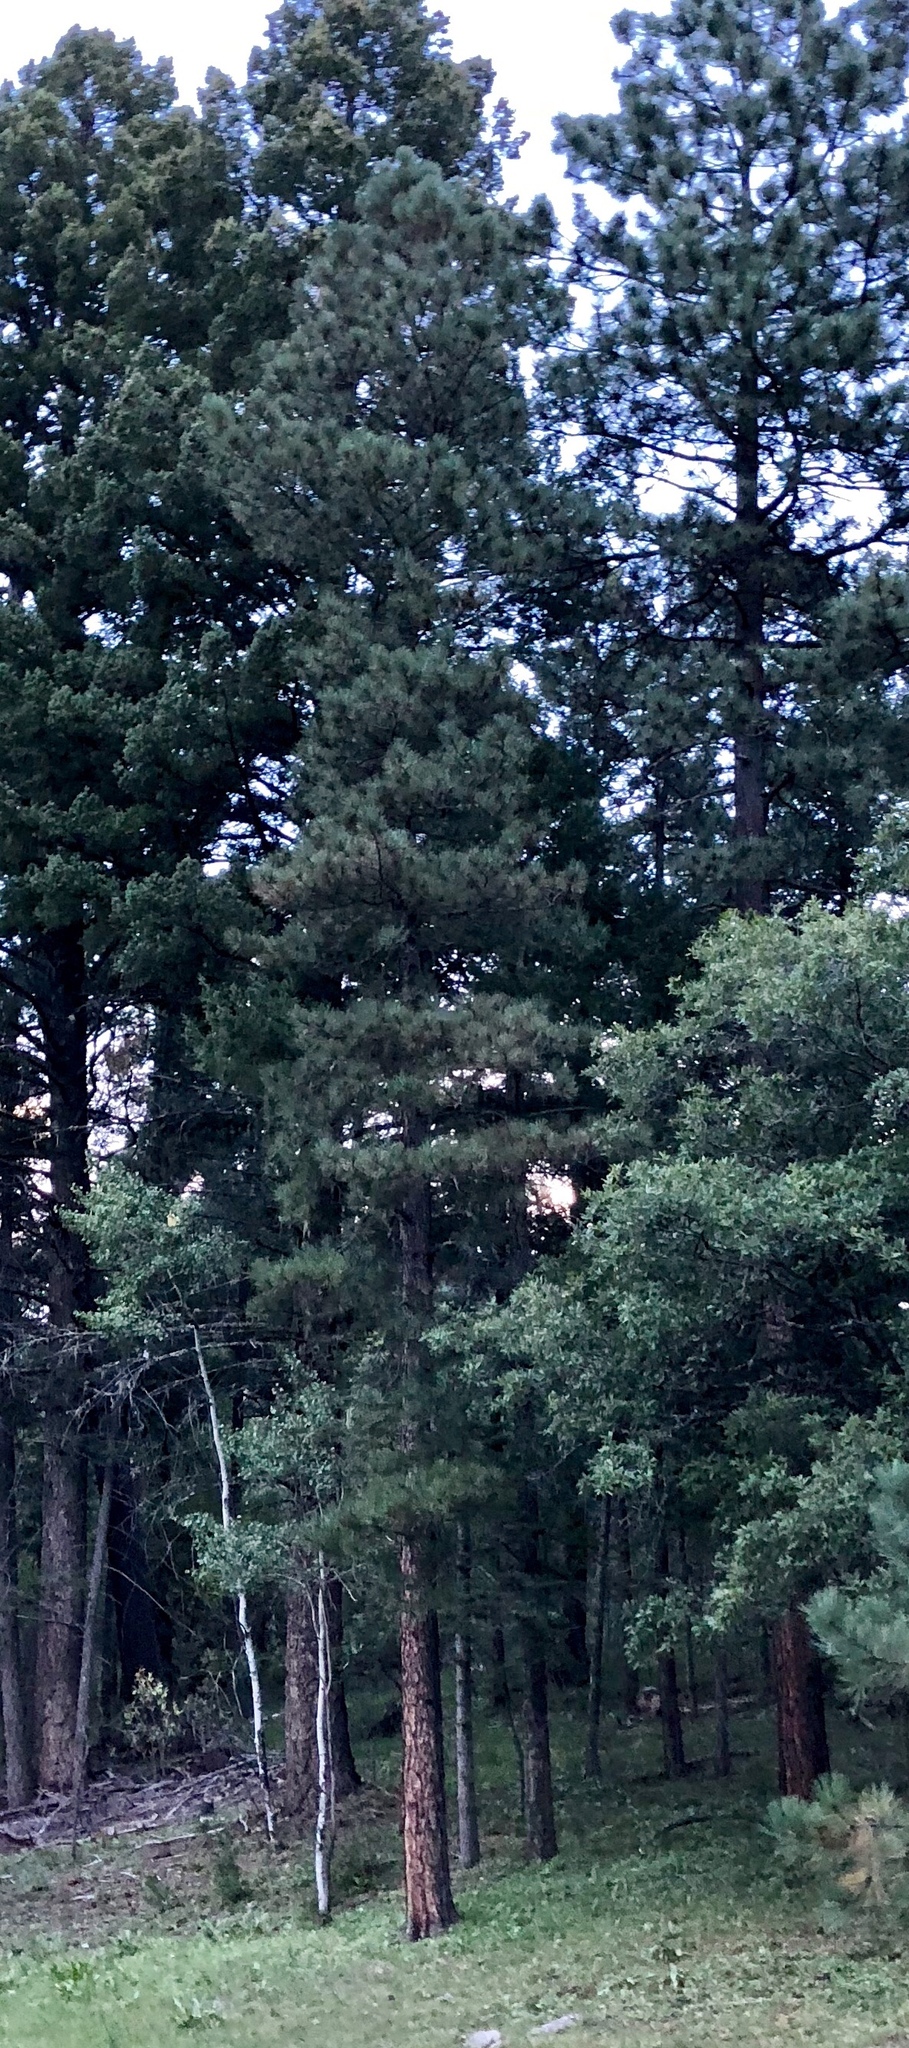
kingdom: Plantae
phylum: Tracheophyta
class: Pinopsida
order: Pinales
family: Pinaceae
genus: Pinus
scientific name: Pinus ponderosa
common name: Western yellow-pine
